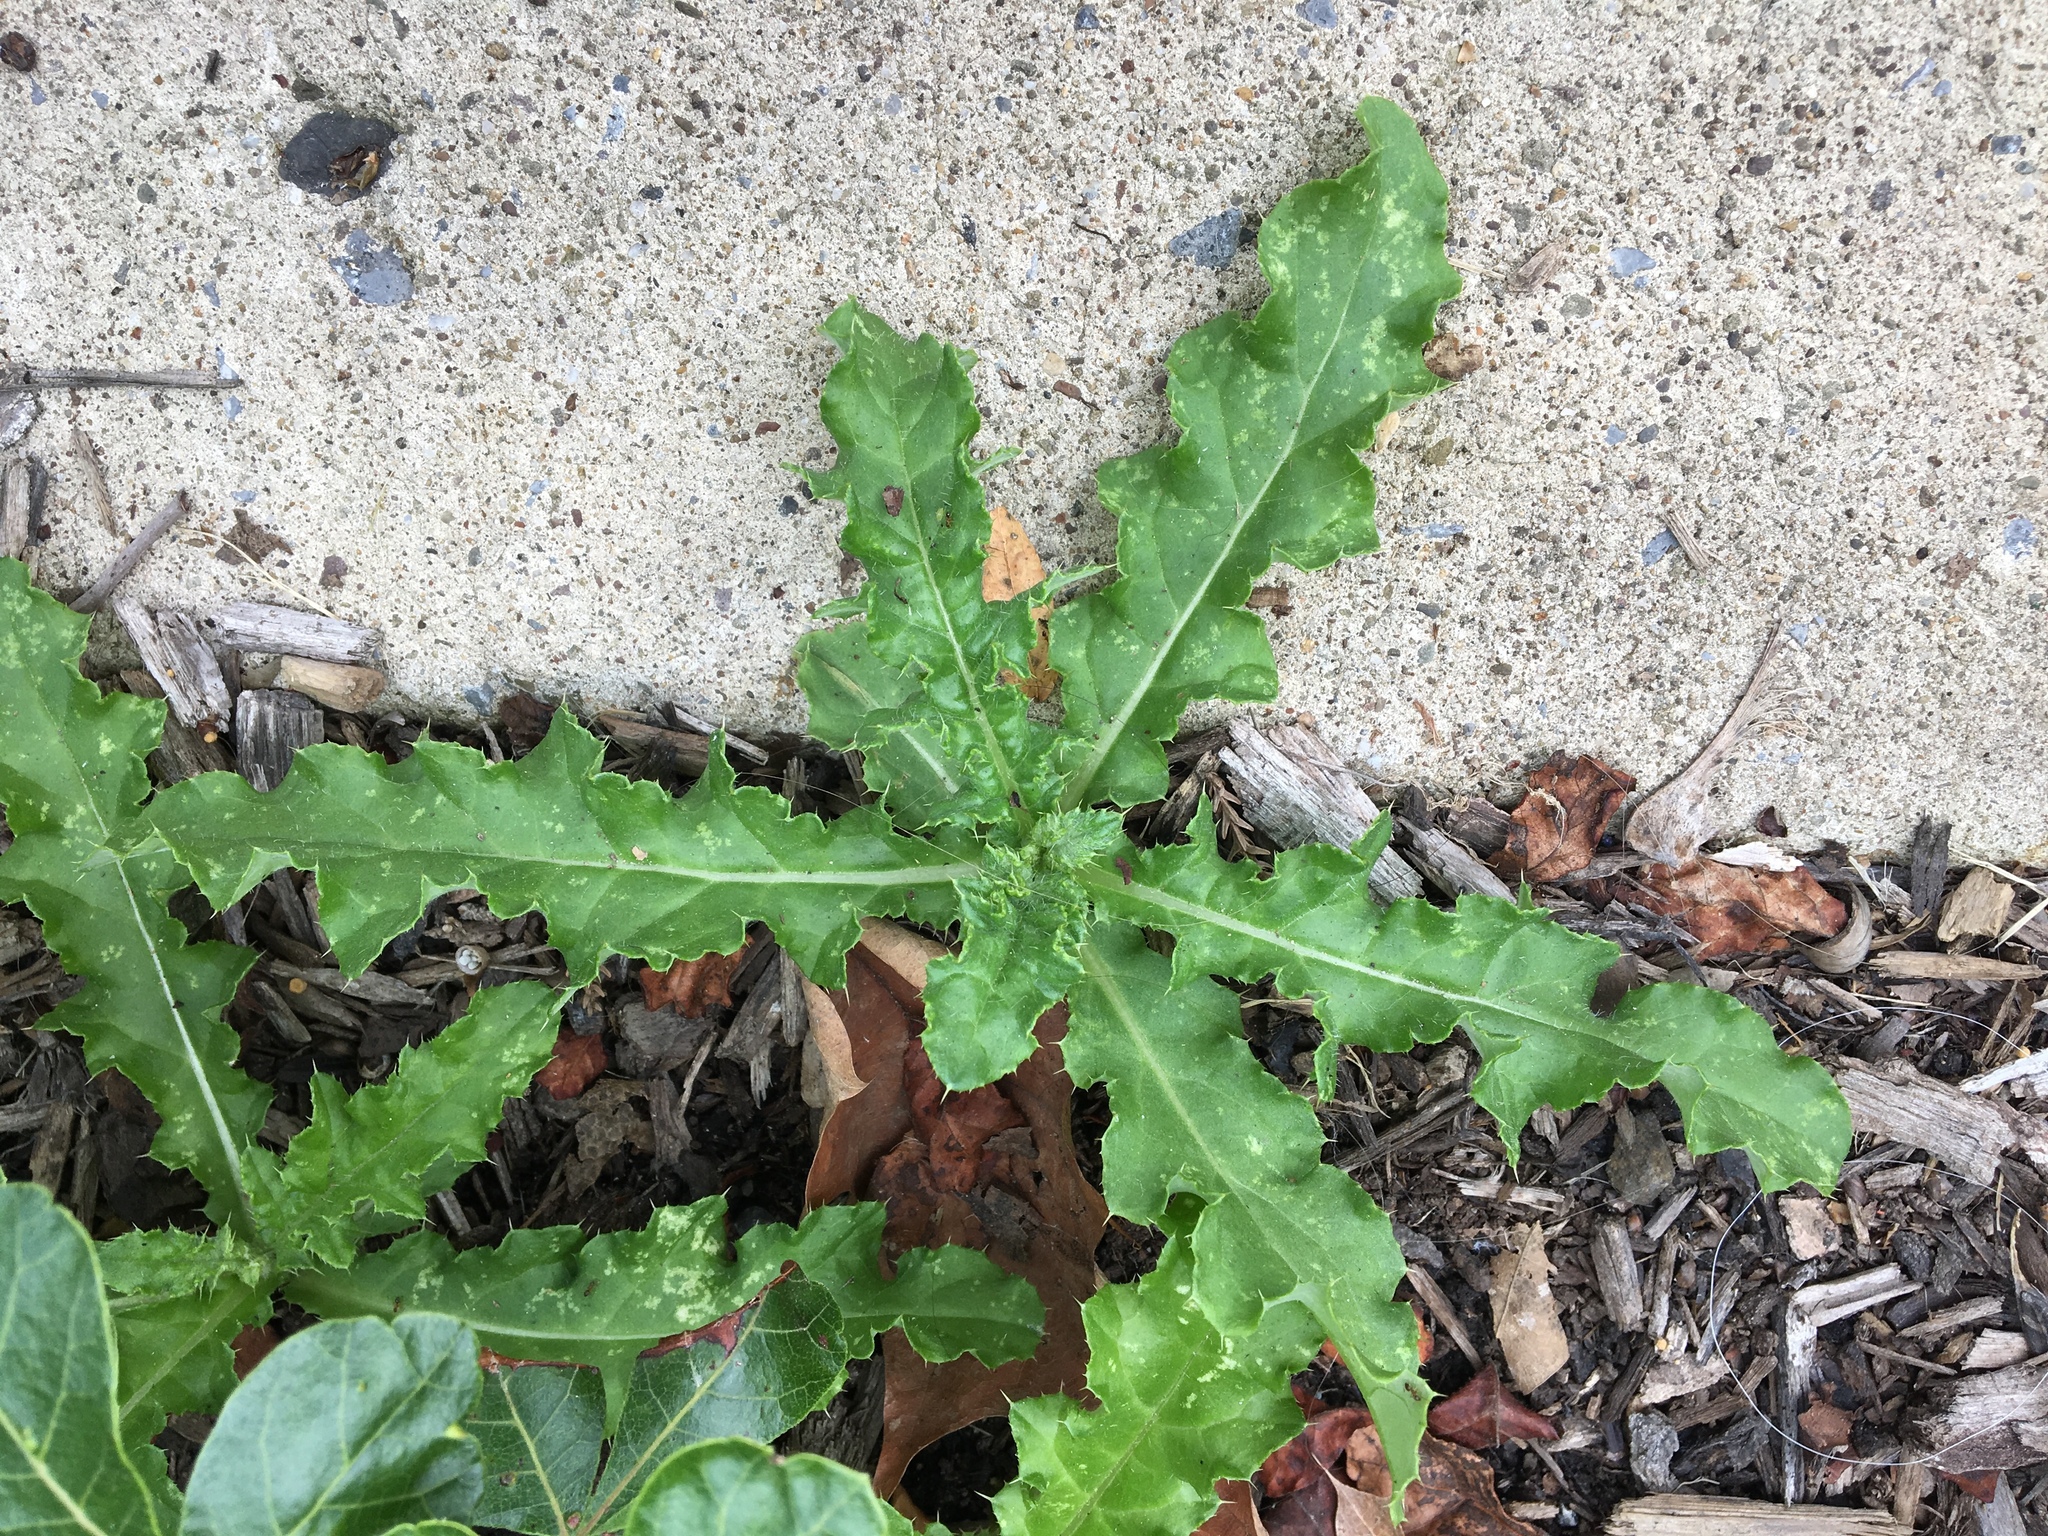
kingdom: Plantae
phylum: Tracheophyta
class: Magnoliopsida
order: Asterales
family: Asteraceae
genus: Cirsium
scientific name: Cirsium arvense
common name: Creeping thistle
